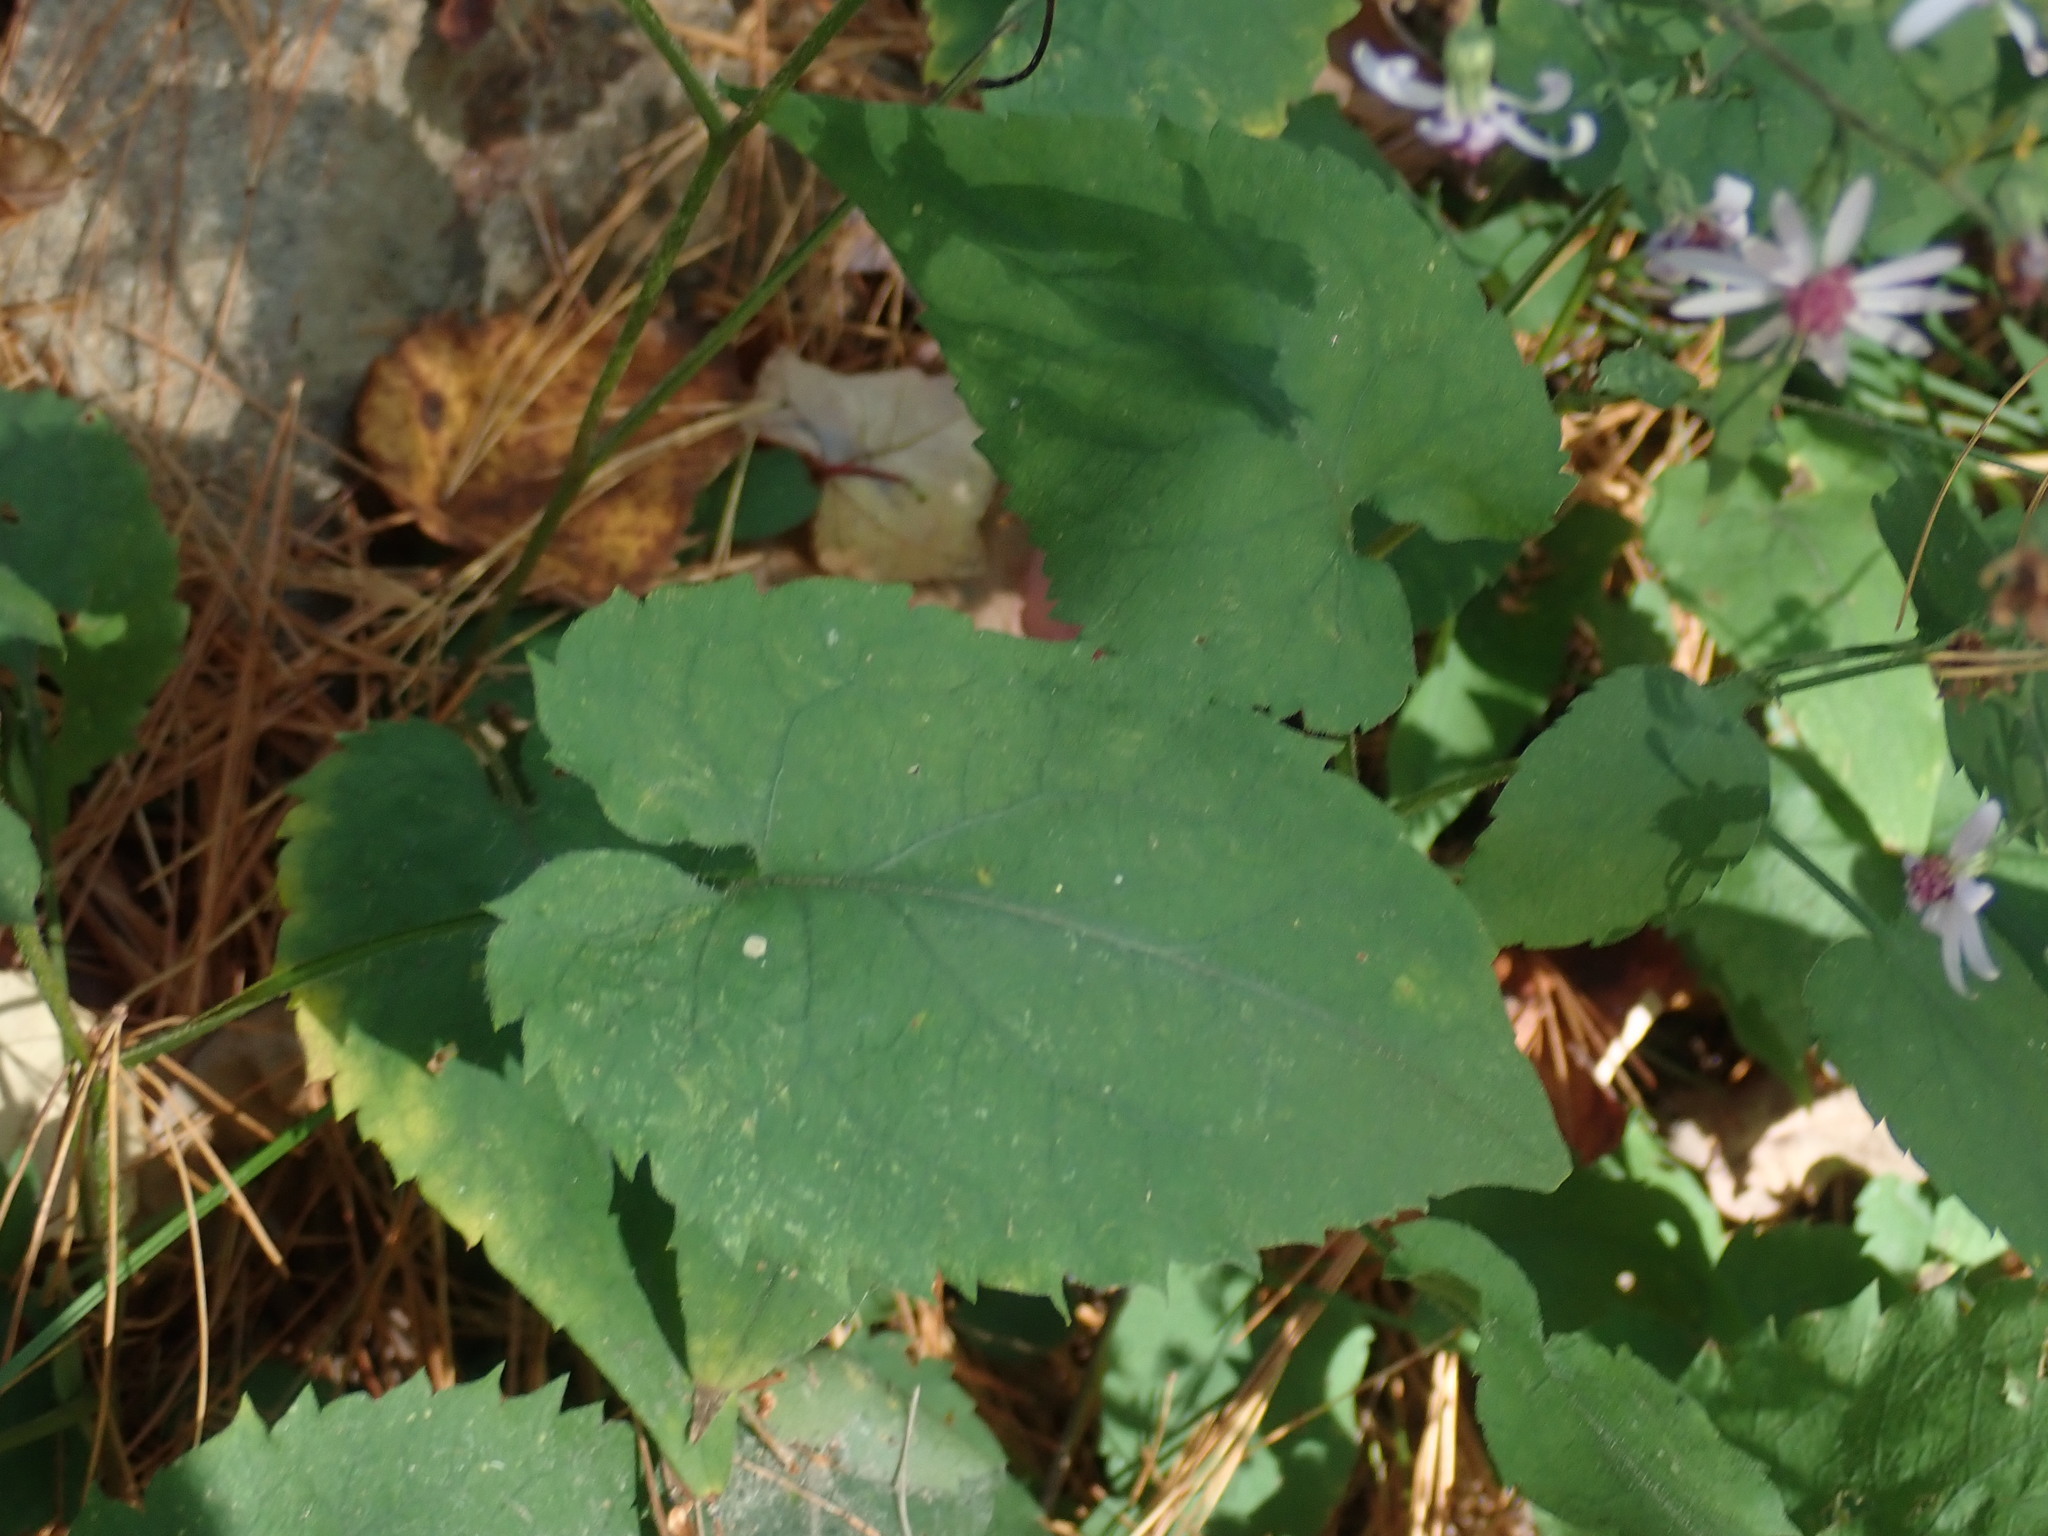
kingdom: Plantae
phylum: Tracheophyta
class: Magnoliopsida
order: Asterales
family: Asteraceae
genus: Symphyotrichum
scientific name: Symphyotrichum cordifolium
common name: Beeweed
